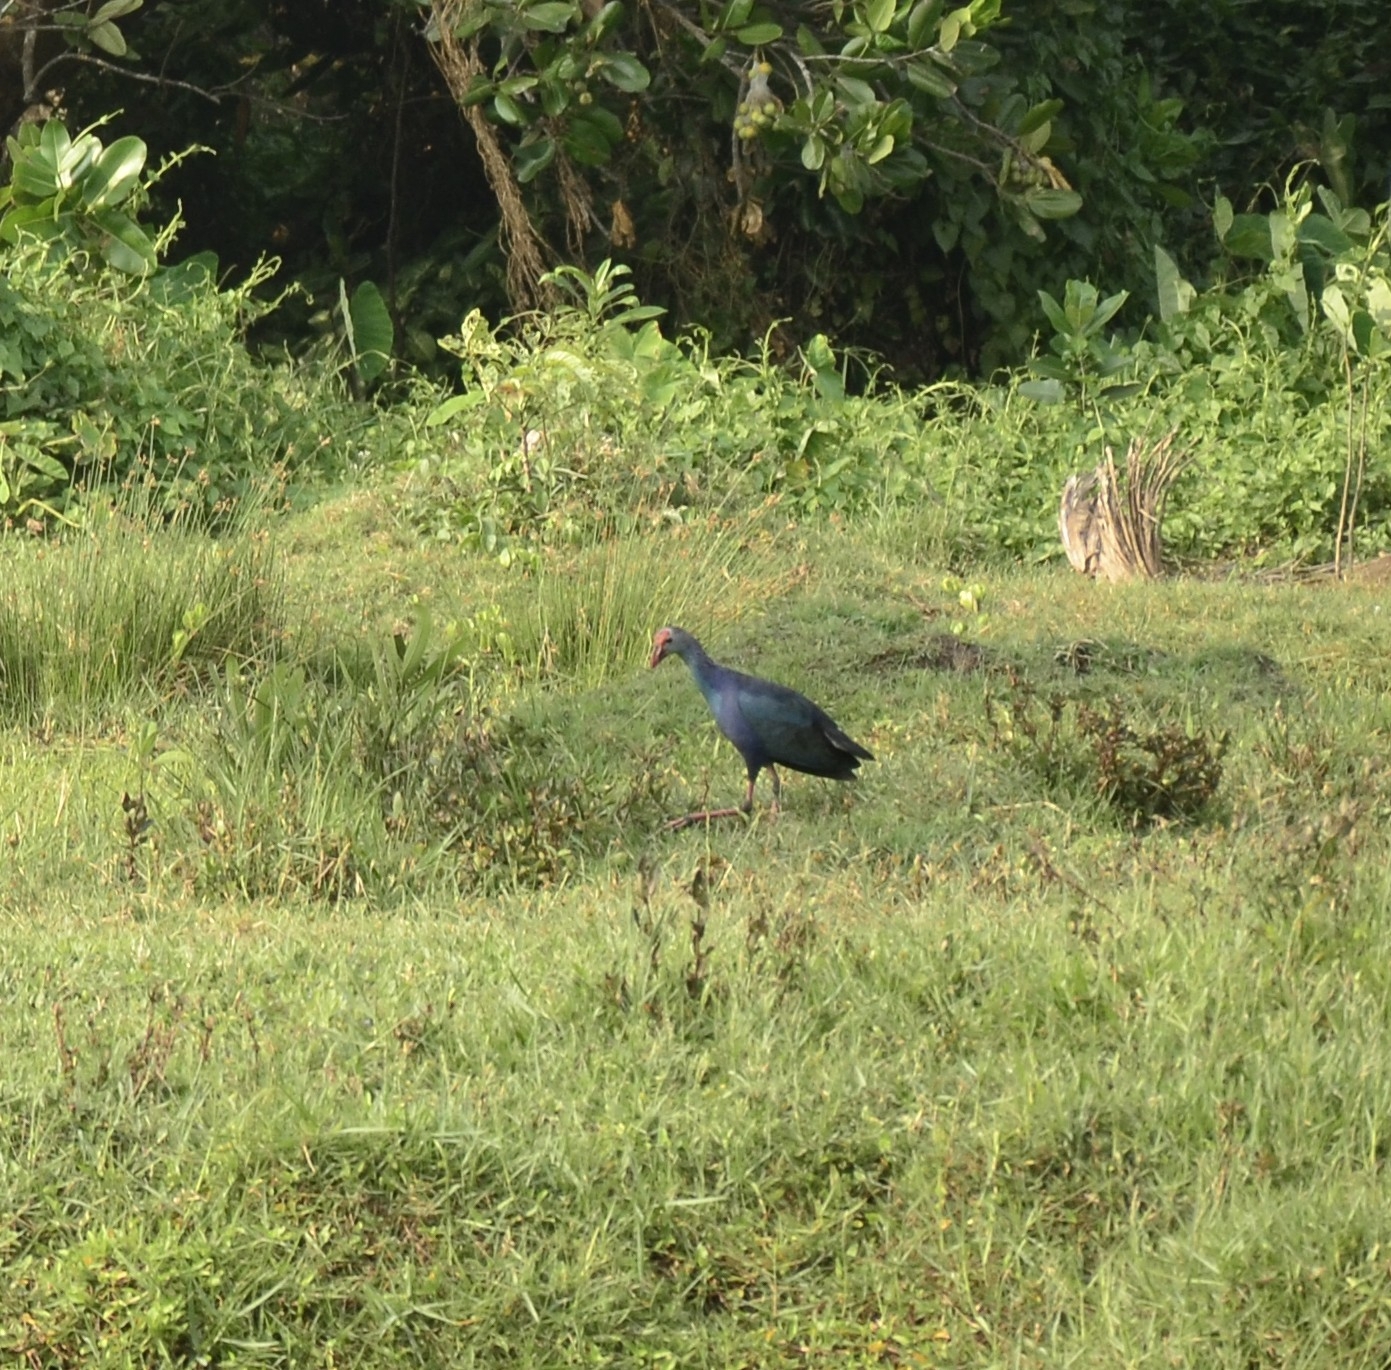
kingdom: Animalia
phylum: Chordata
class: Aves
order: Gruiformes
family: Rallidae
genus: Porphyrio
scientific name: Porphyrio porphyrio
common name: Purple swamphen
